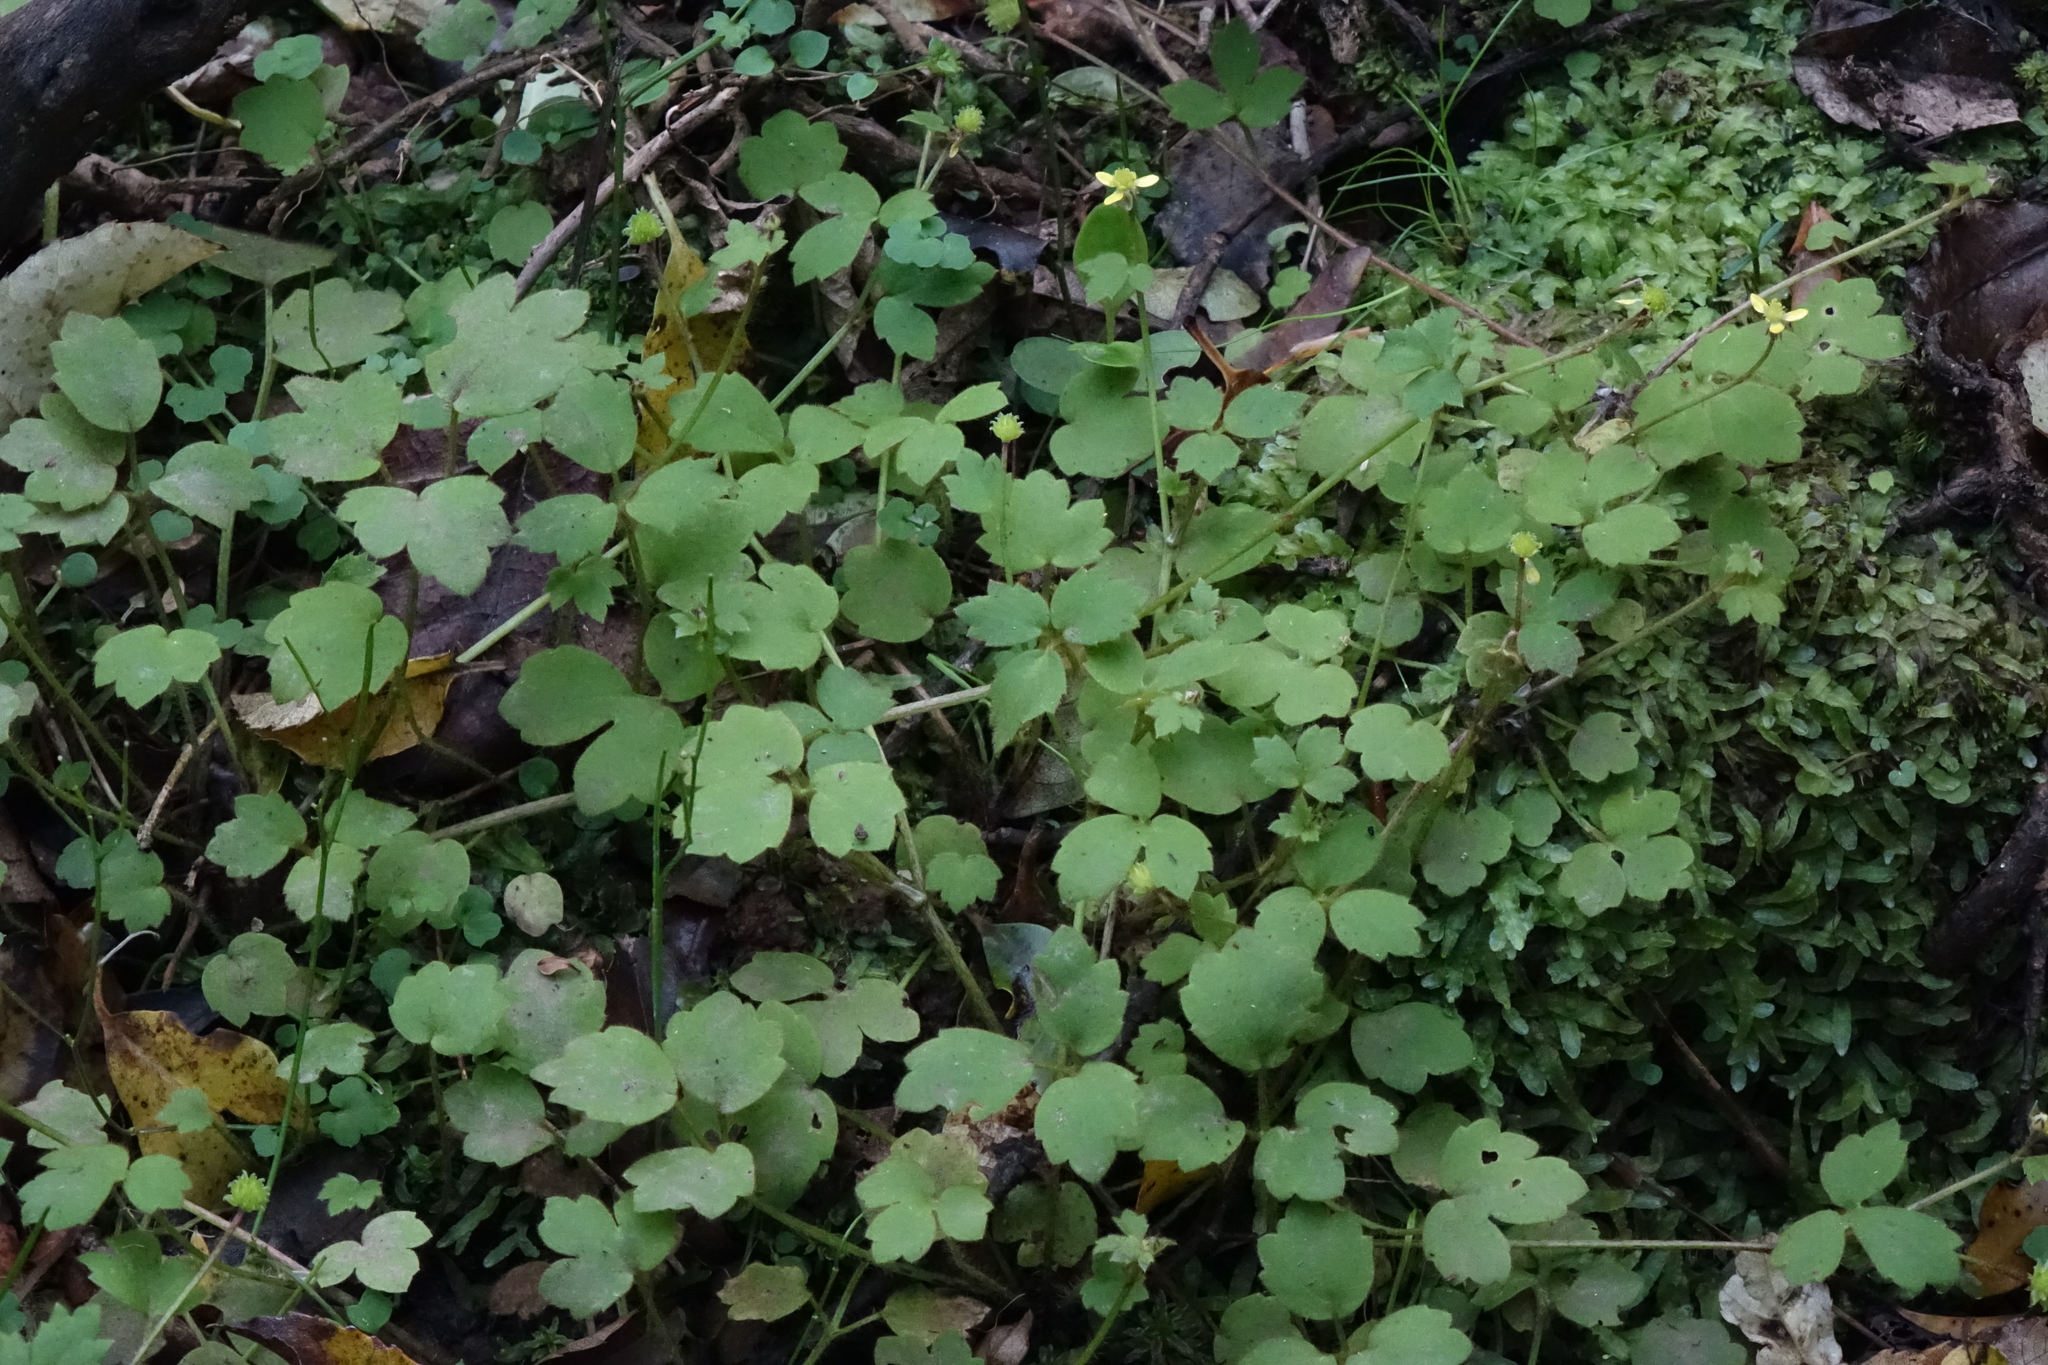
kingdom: Plantae
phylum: Tracheophyta
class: Magnoliopsida
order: Ranunculales
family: Ranunculaceae
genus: Ranunculus
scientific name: Ranunculus reflexus
